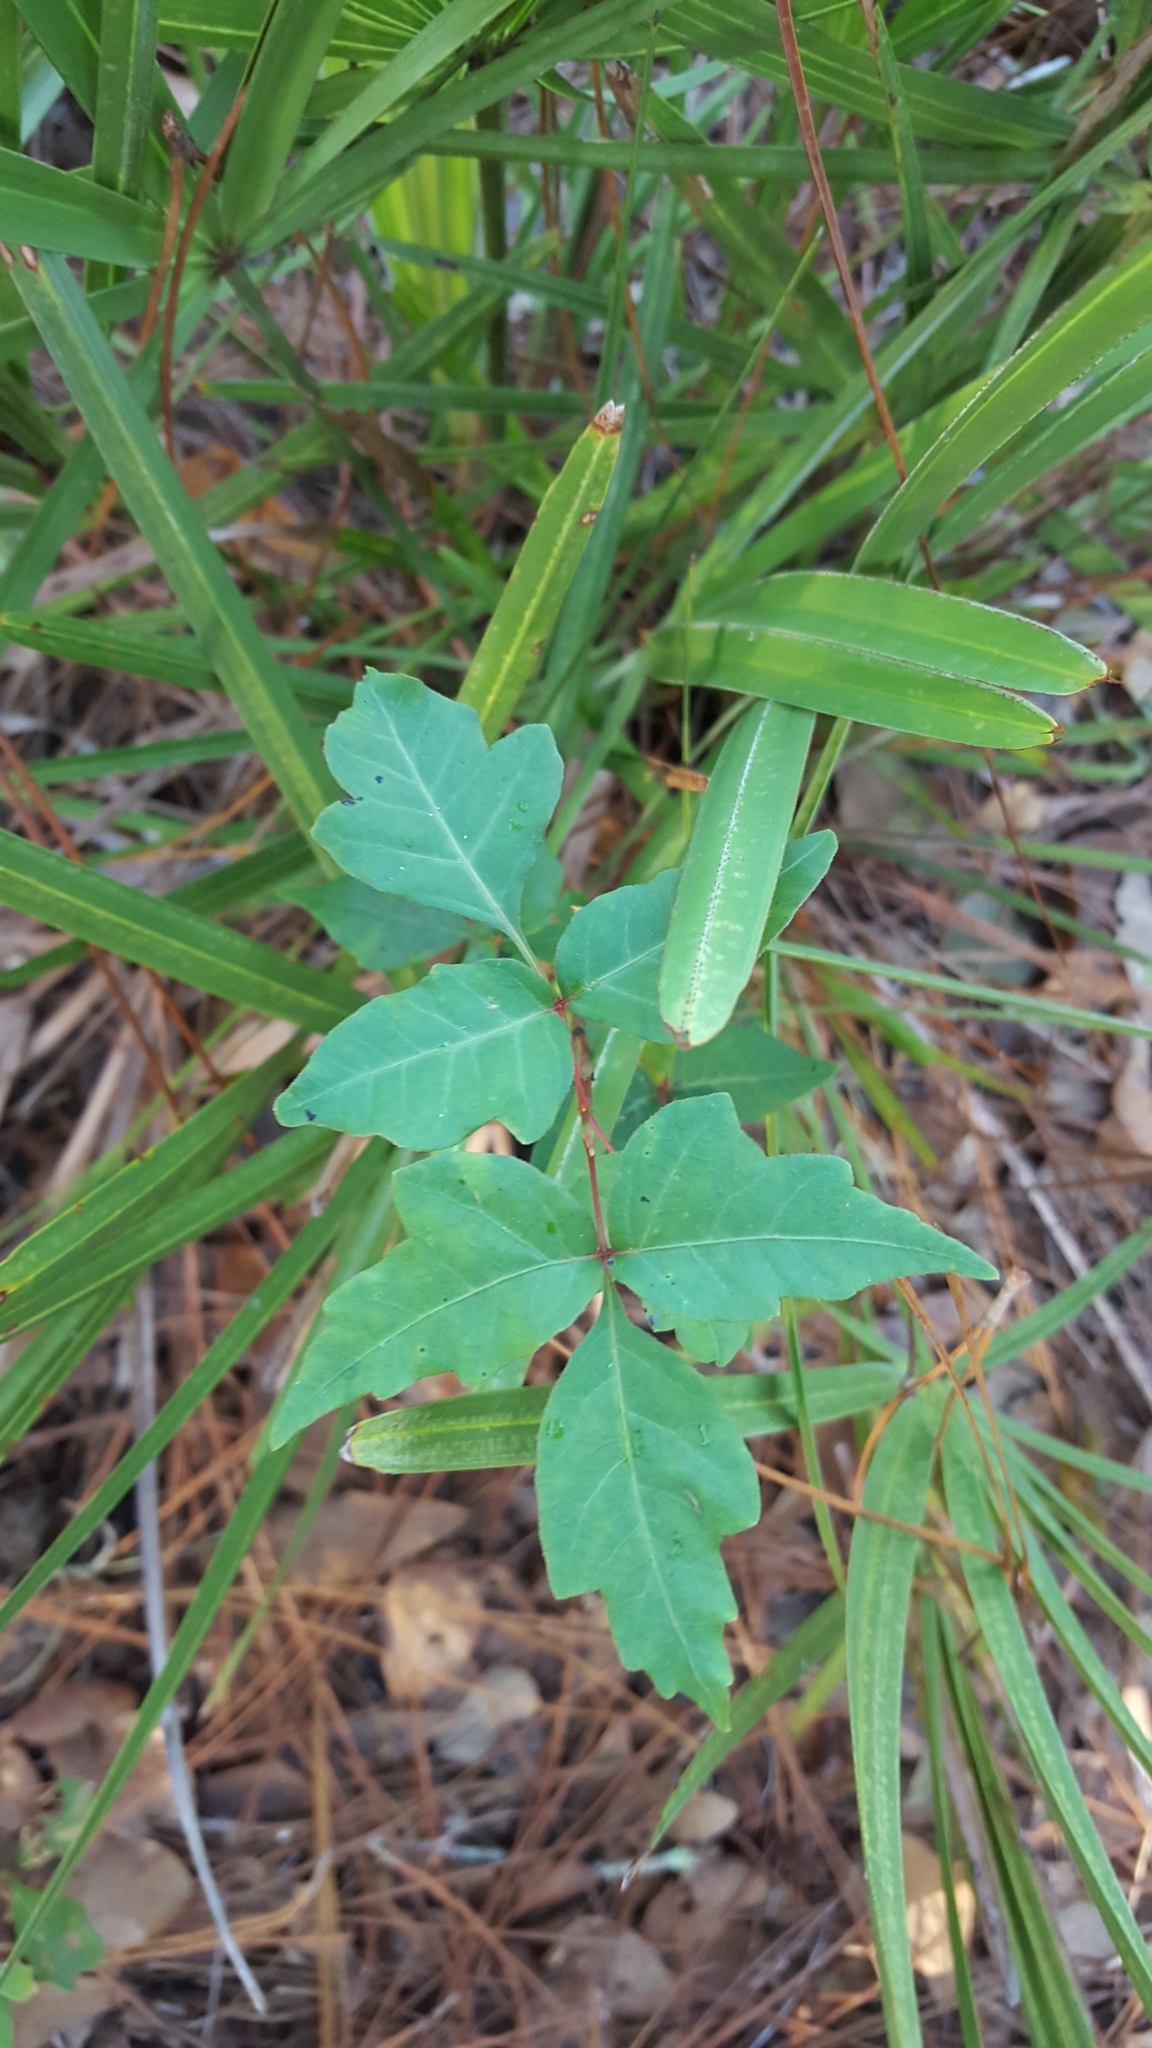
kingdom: Plantae
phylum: Tracheophyta
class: Magnoliopsida
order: Sapindales
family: Anacardiaceae
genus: Toxicodendron
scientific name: Toxicodendron radicans
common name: Poison ivy
